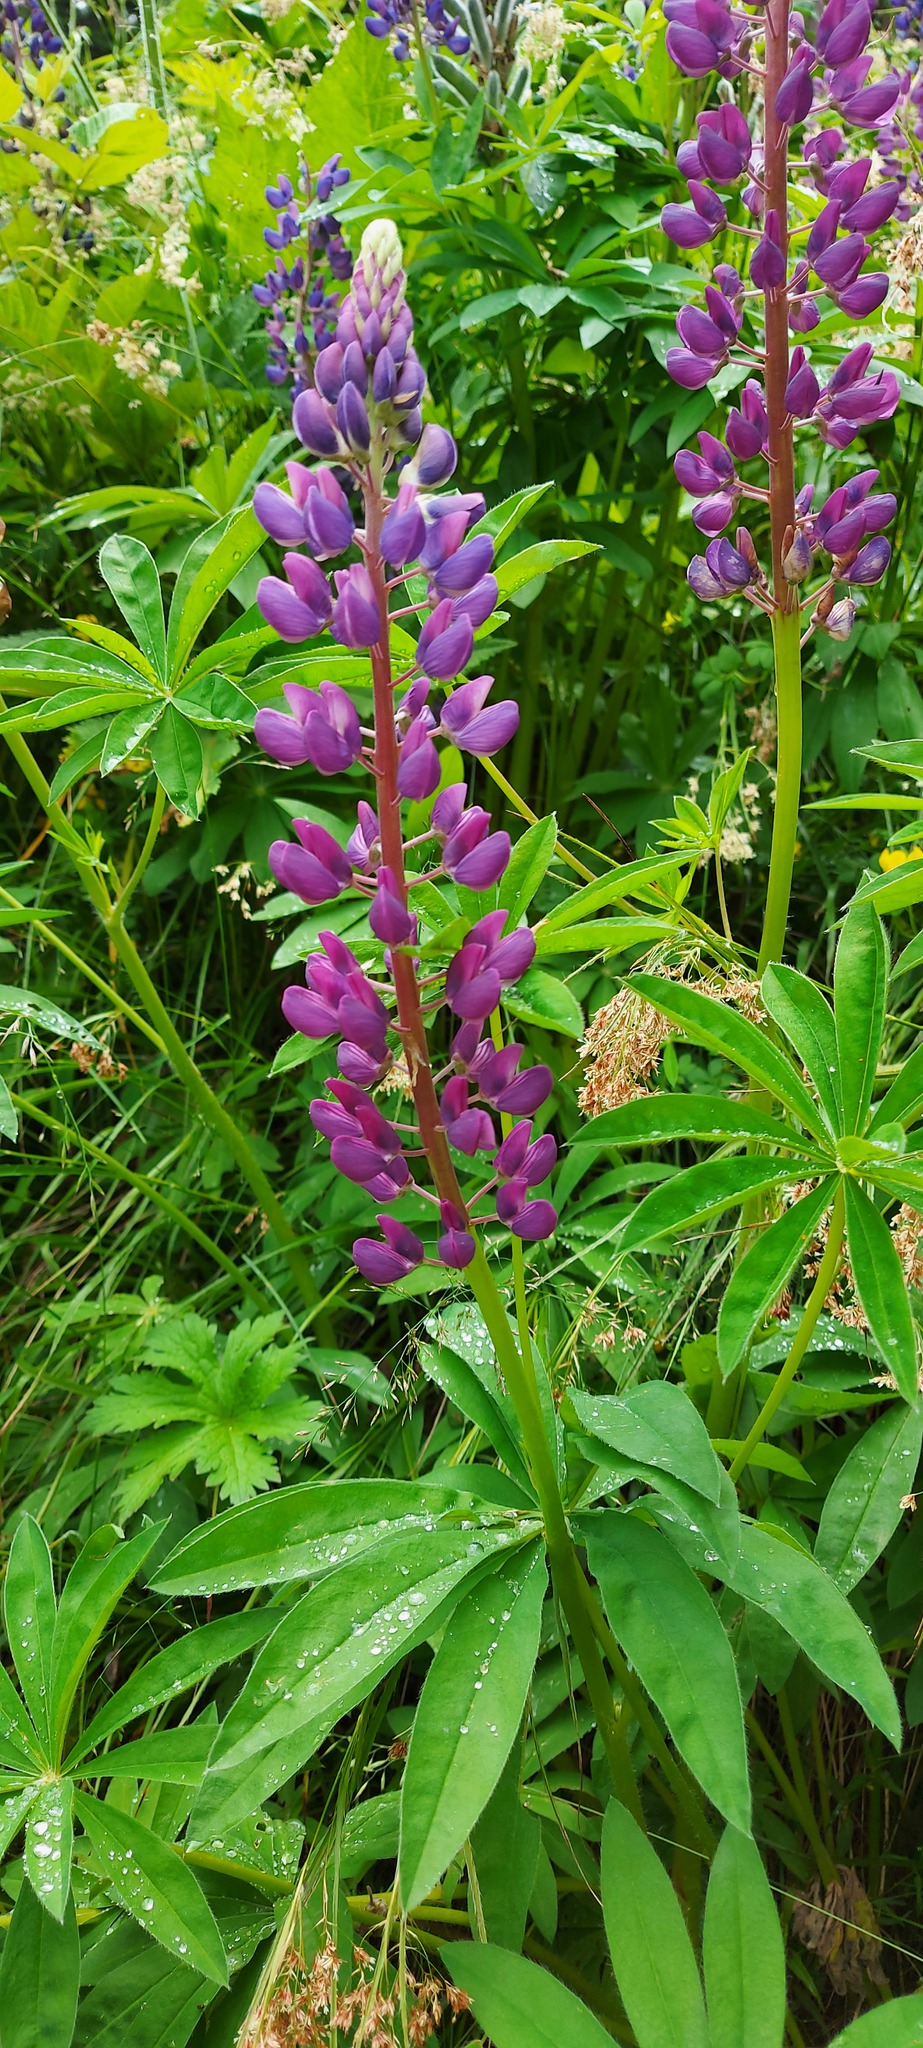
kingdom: Plantae
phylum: Tracheophyta
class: Magnoliopsida
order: Fabales
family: Fabaceae
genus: Lupinus
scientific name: Lupinus polyphyllus
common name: Garden lupin
